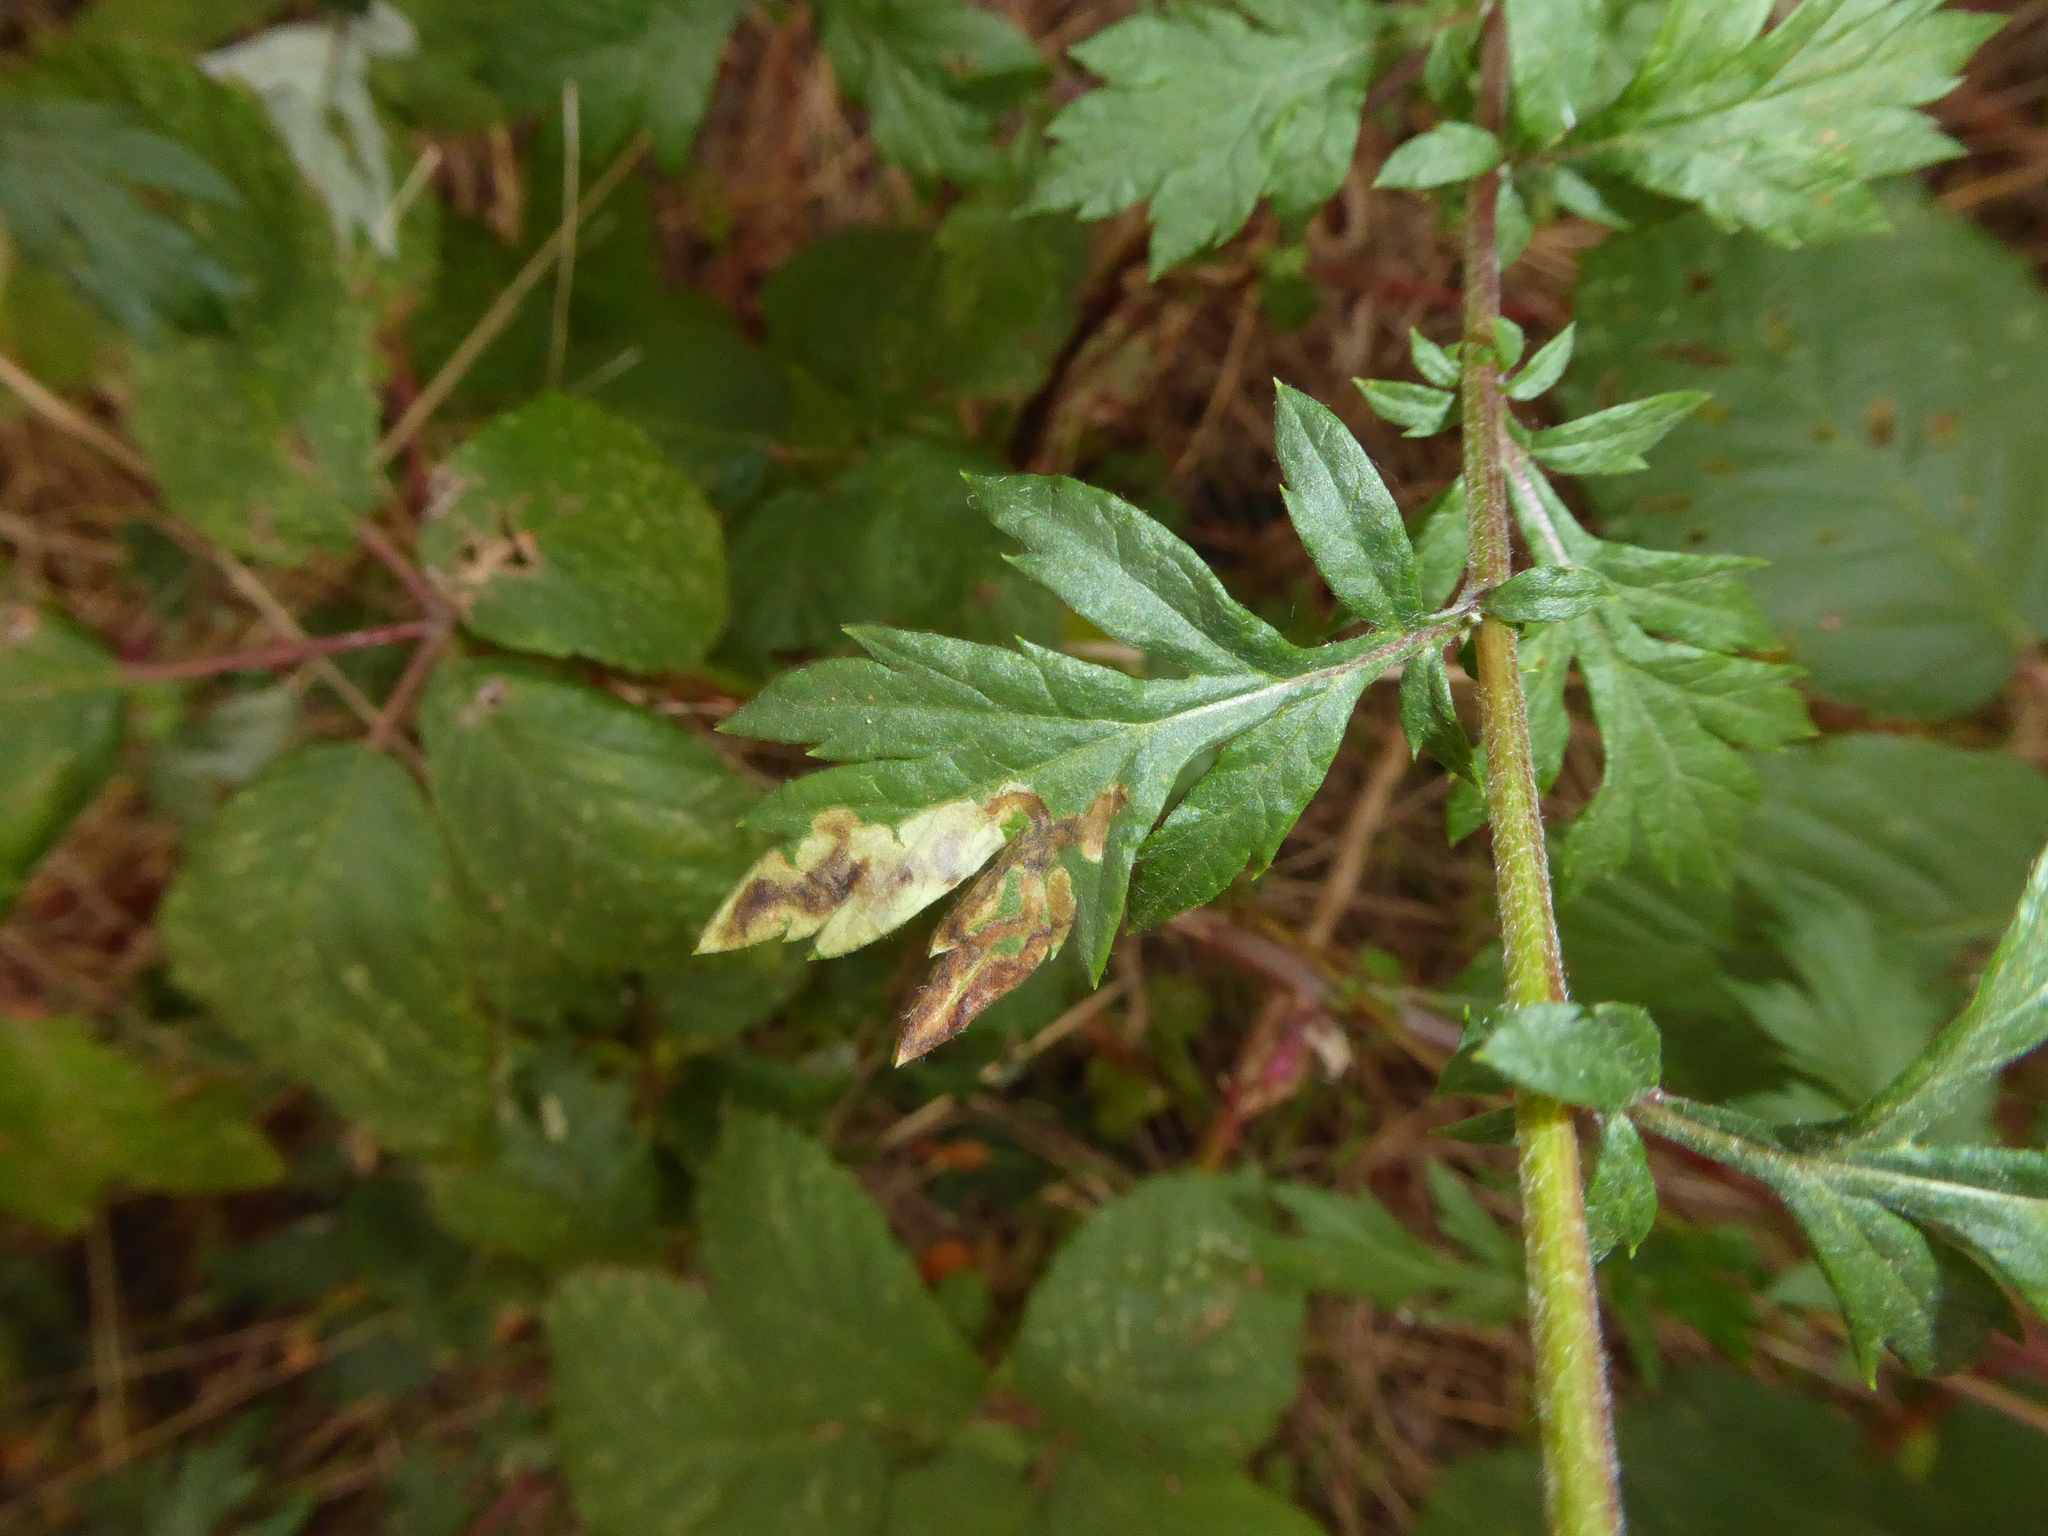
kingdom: Plantae
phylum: Tracheophyta
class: Magnoliopsida
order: Asterales
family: Asteraceae
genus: Artemisia
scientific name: Artemisia vulgaris
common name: Mugwort
